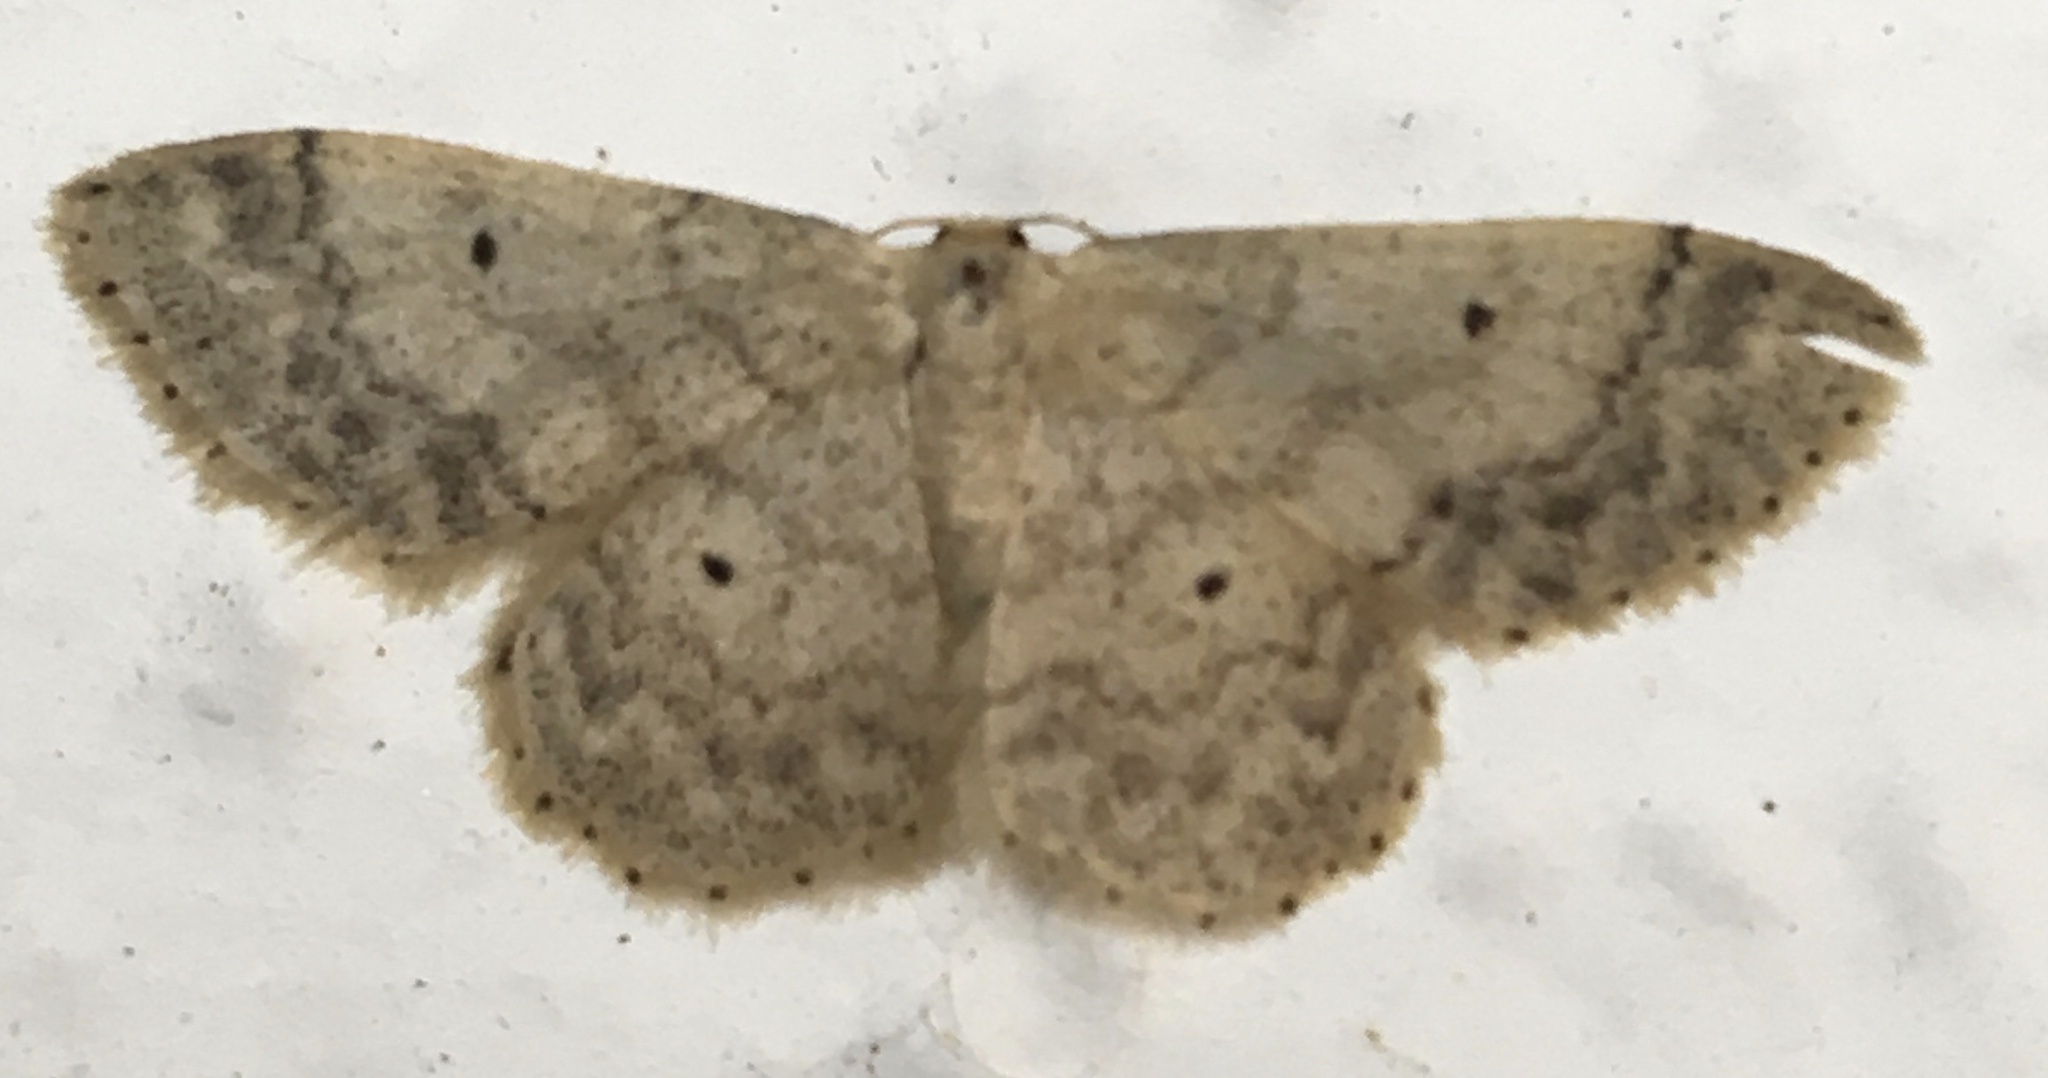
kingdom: Animalia
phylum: Arthropoda
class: Insecta
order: Lepidoptera
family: Geometridae
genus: Idaea
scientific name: Idaea biselata
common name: Small fan-footed wave
